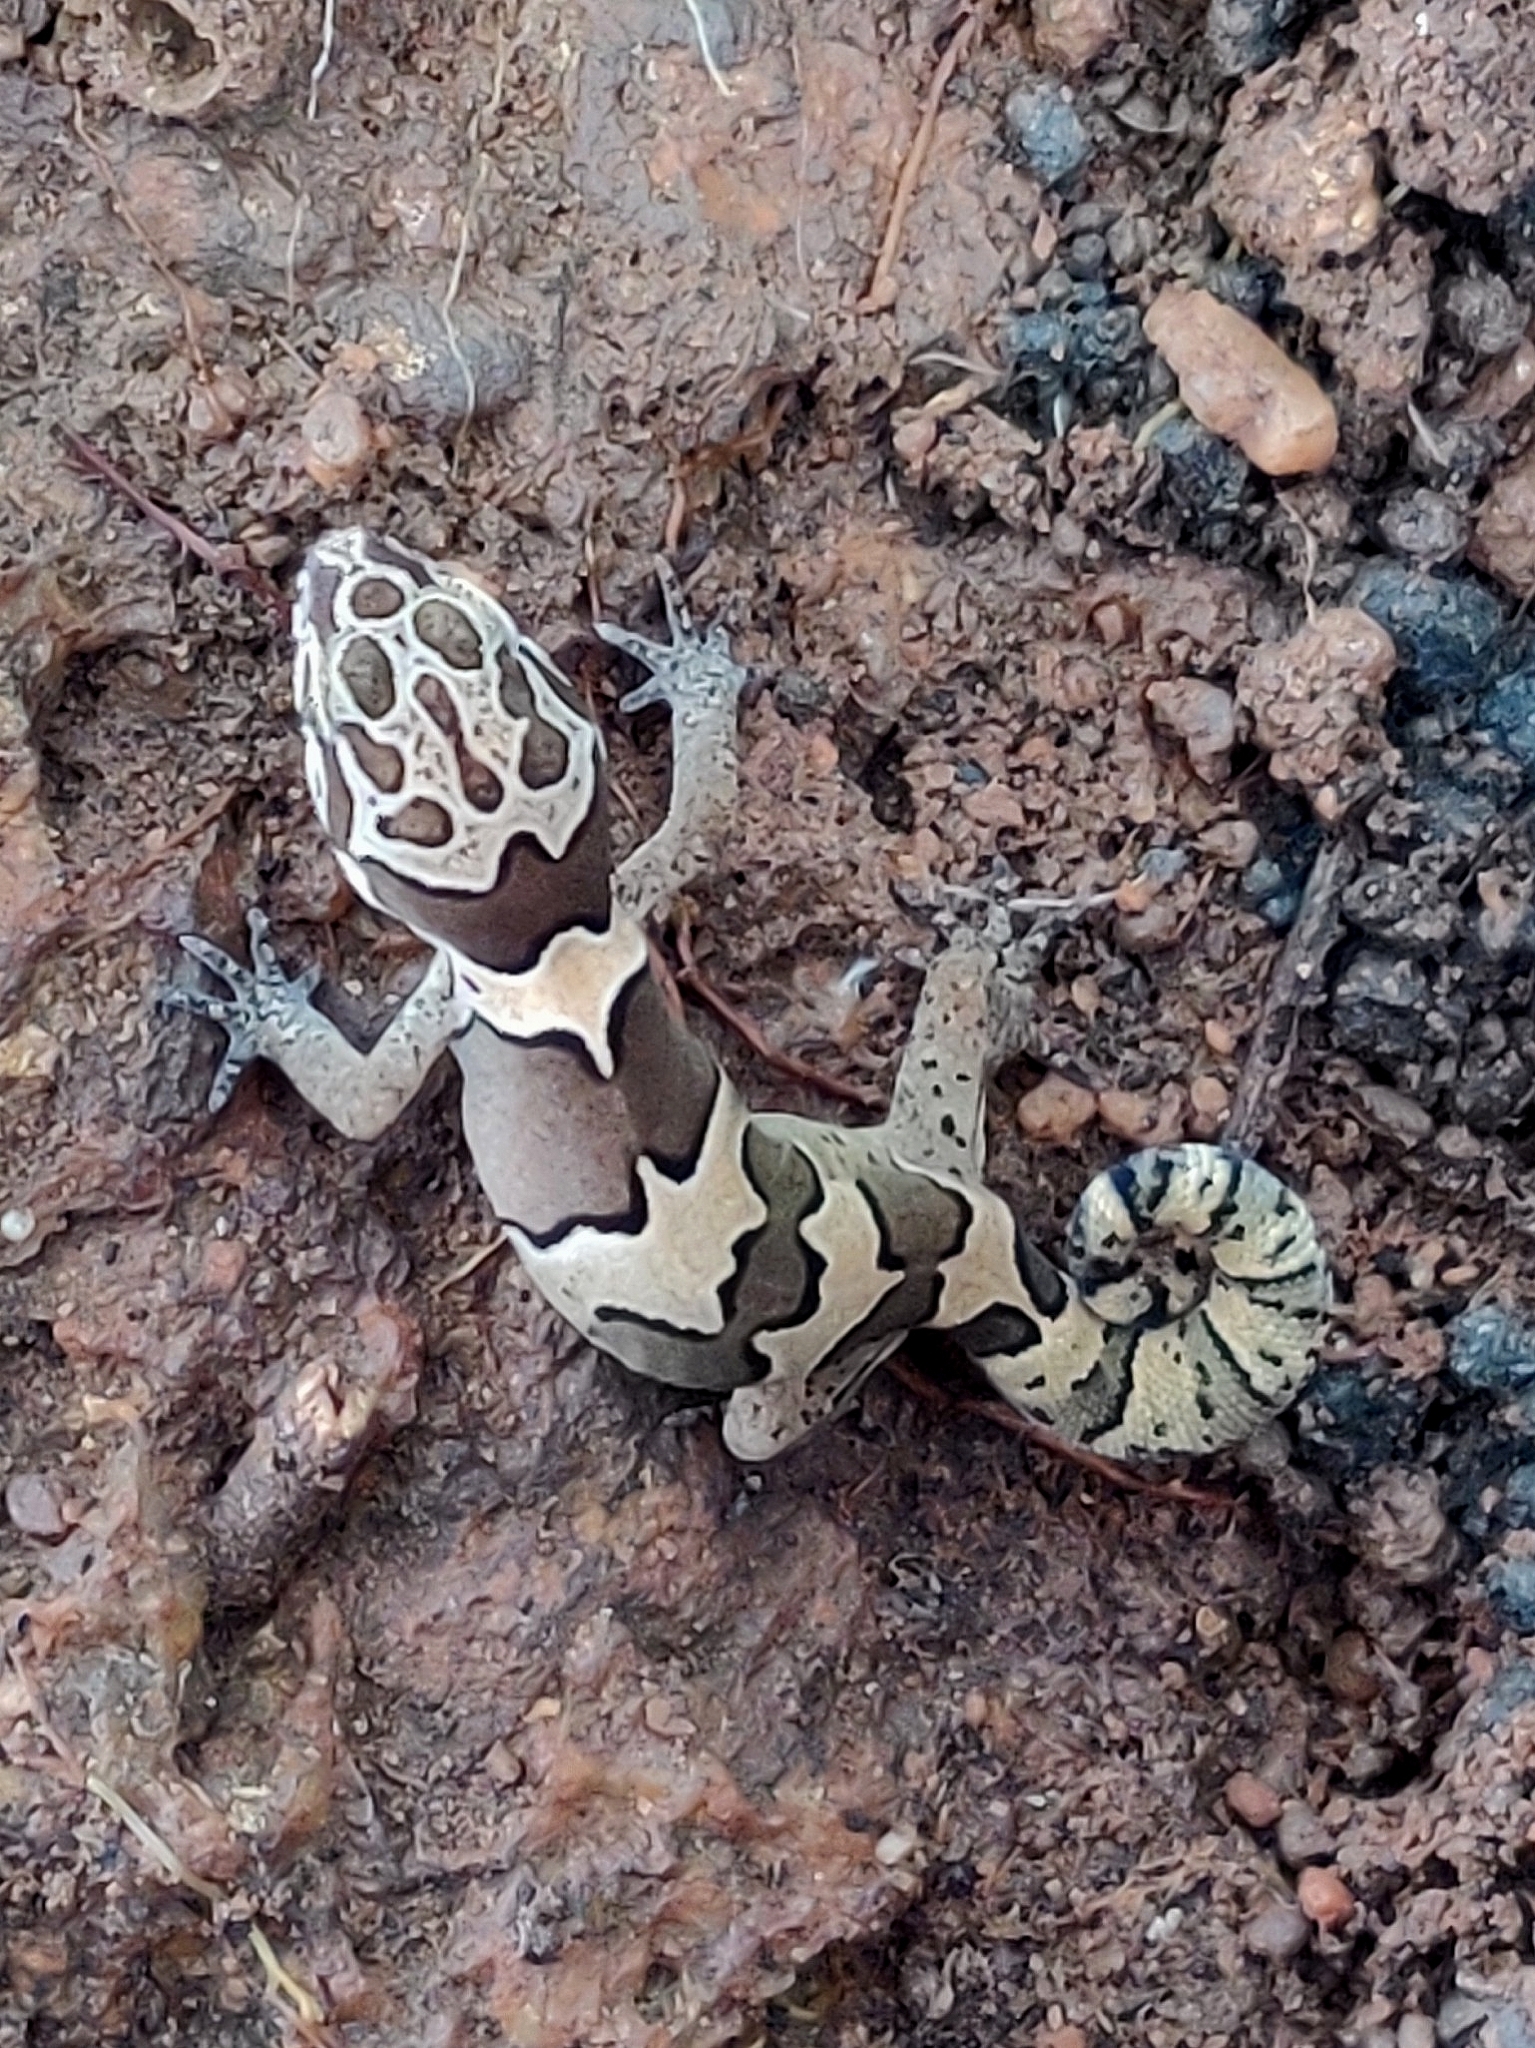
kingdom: Animalia
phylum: Chordata
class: Squamata
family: Gekkonidae
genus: Cyrtodactylus
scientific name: Cyrtodactylus collegalensis
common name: Forest spotted gecko
